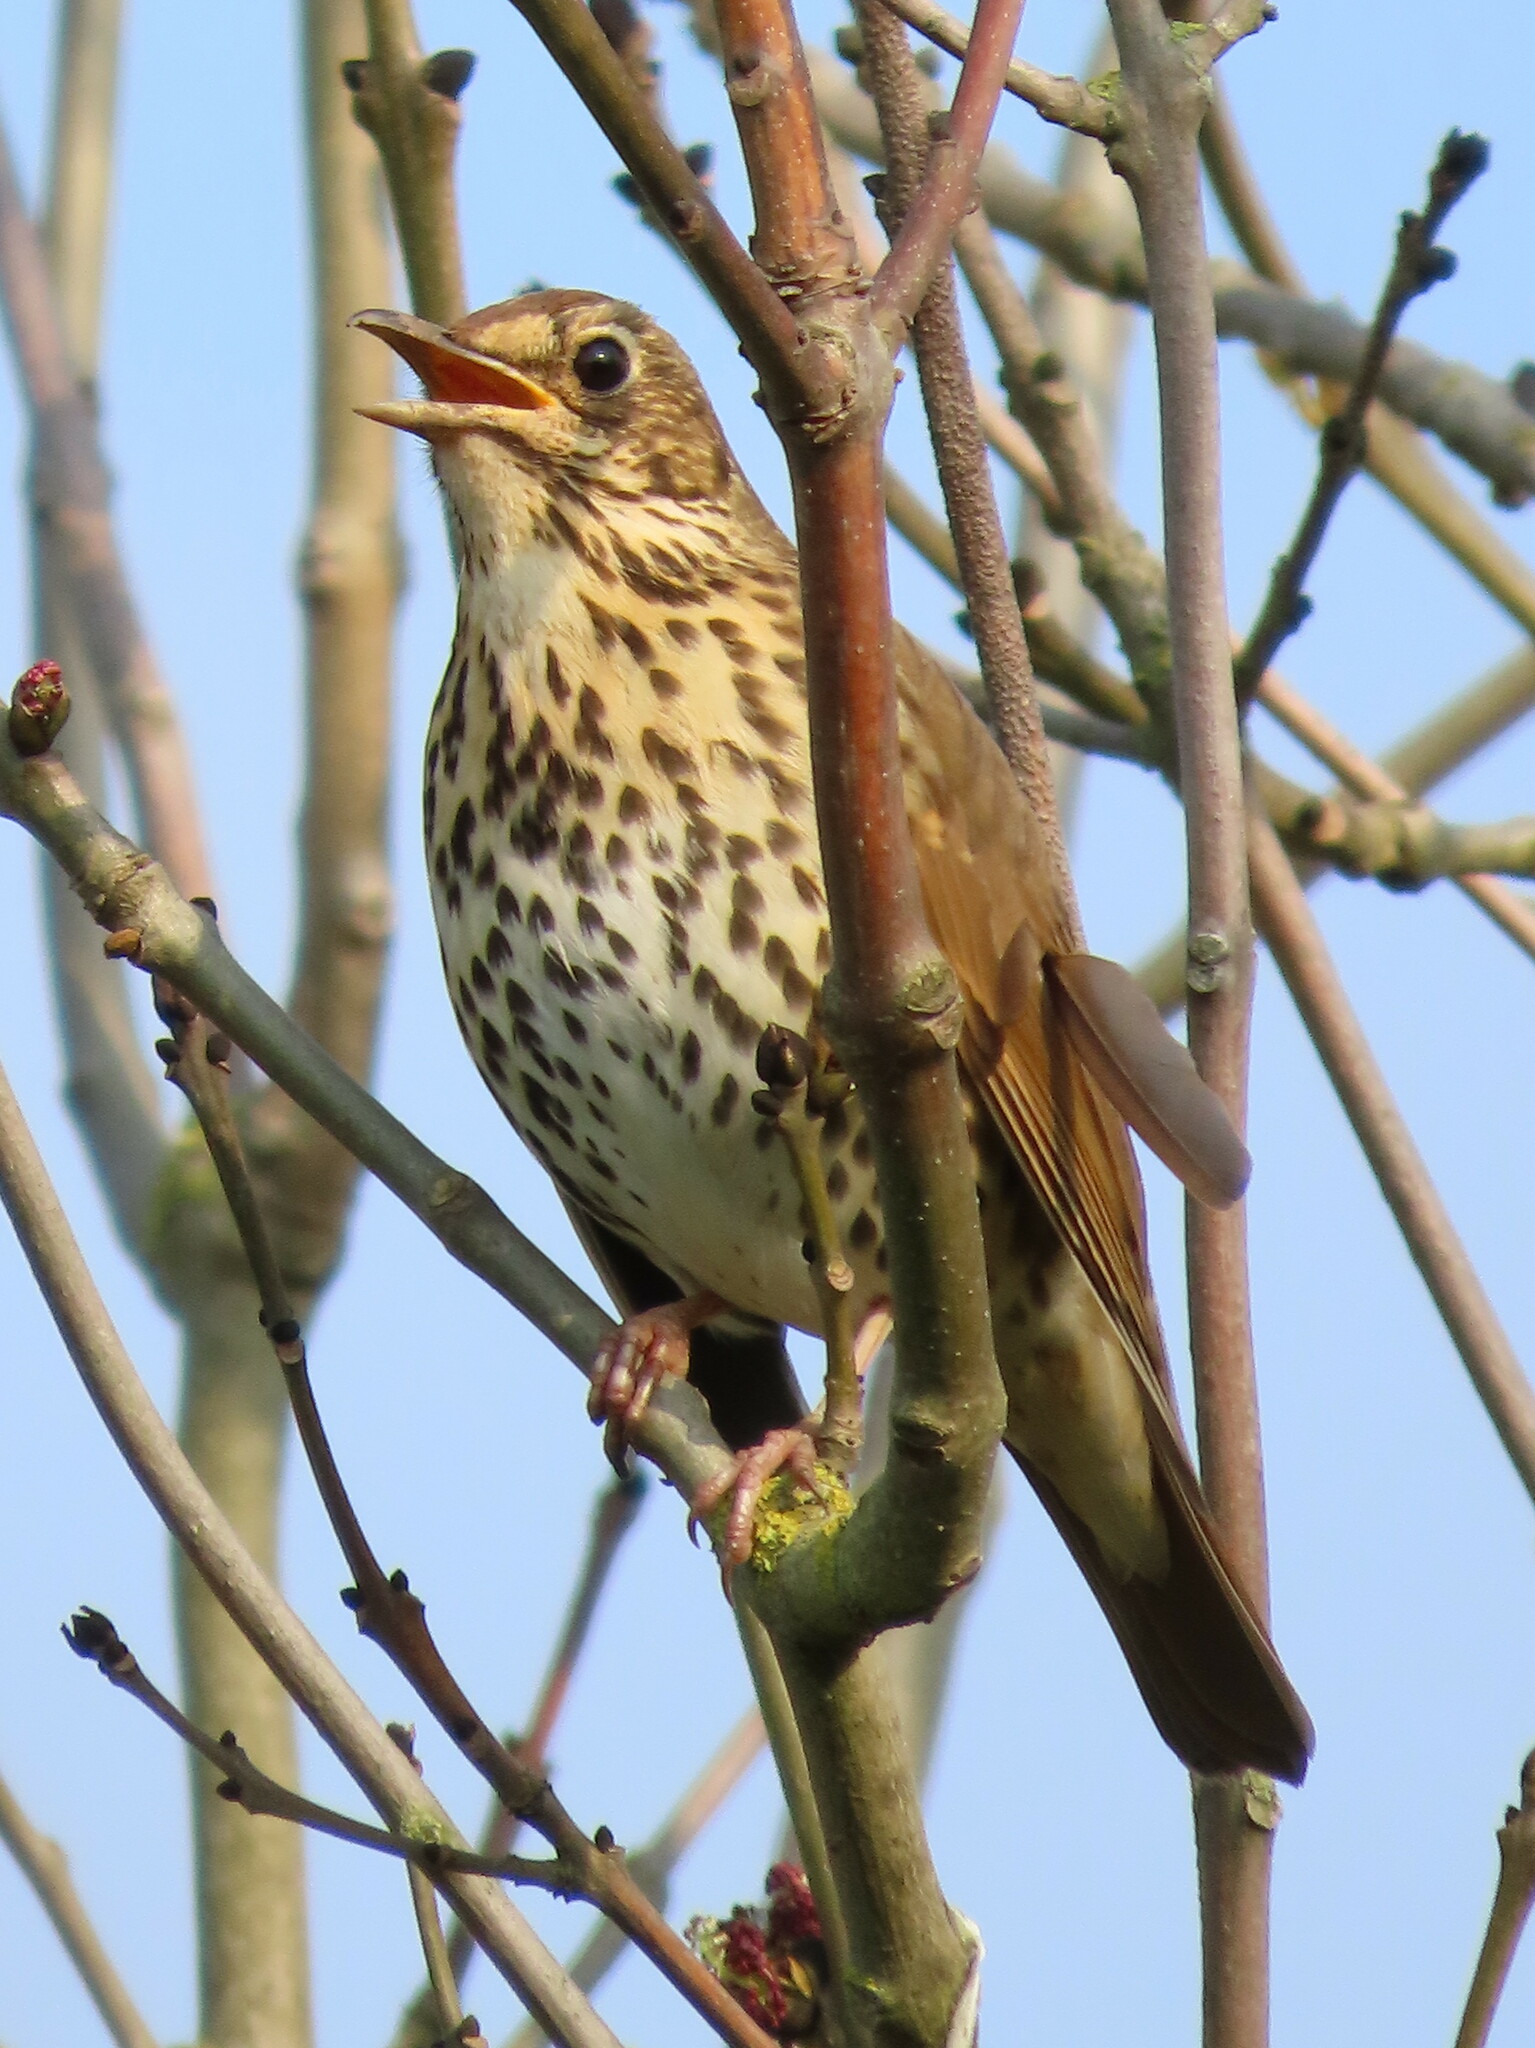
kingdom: Animalia
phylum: Chordata
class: Aves
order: Passeriformes
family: Turdidae
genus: Turdus
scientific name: Turdus philomelos
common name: Song thrush
